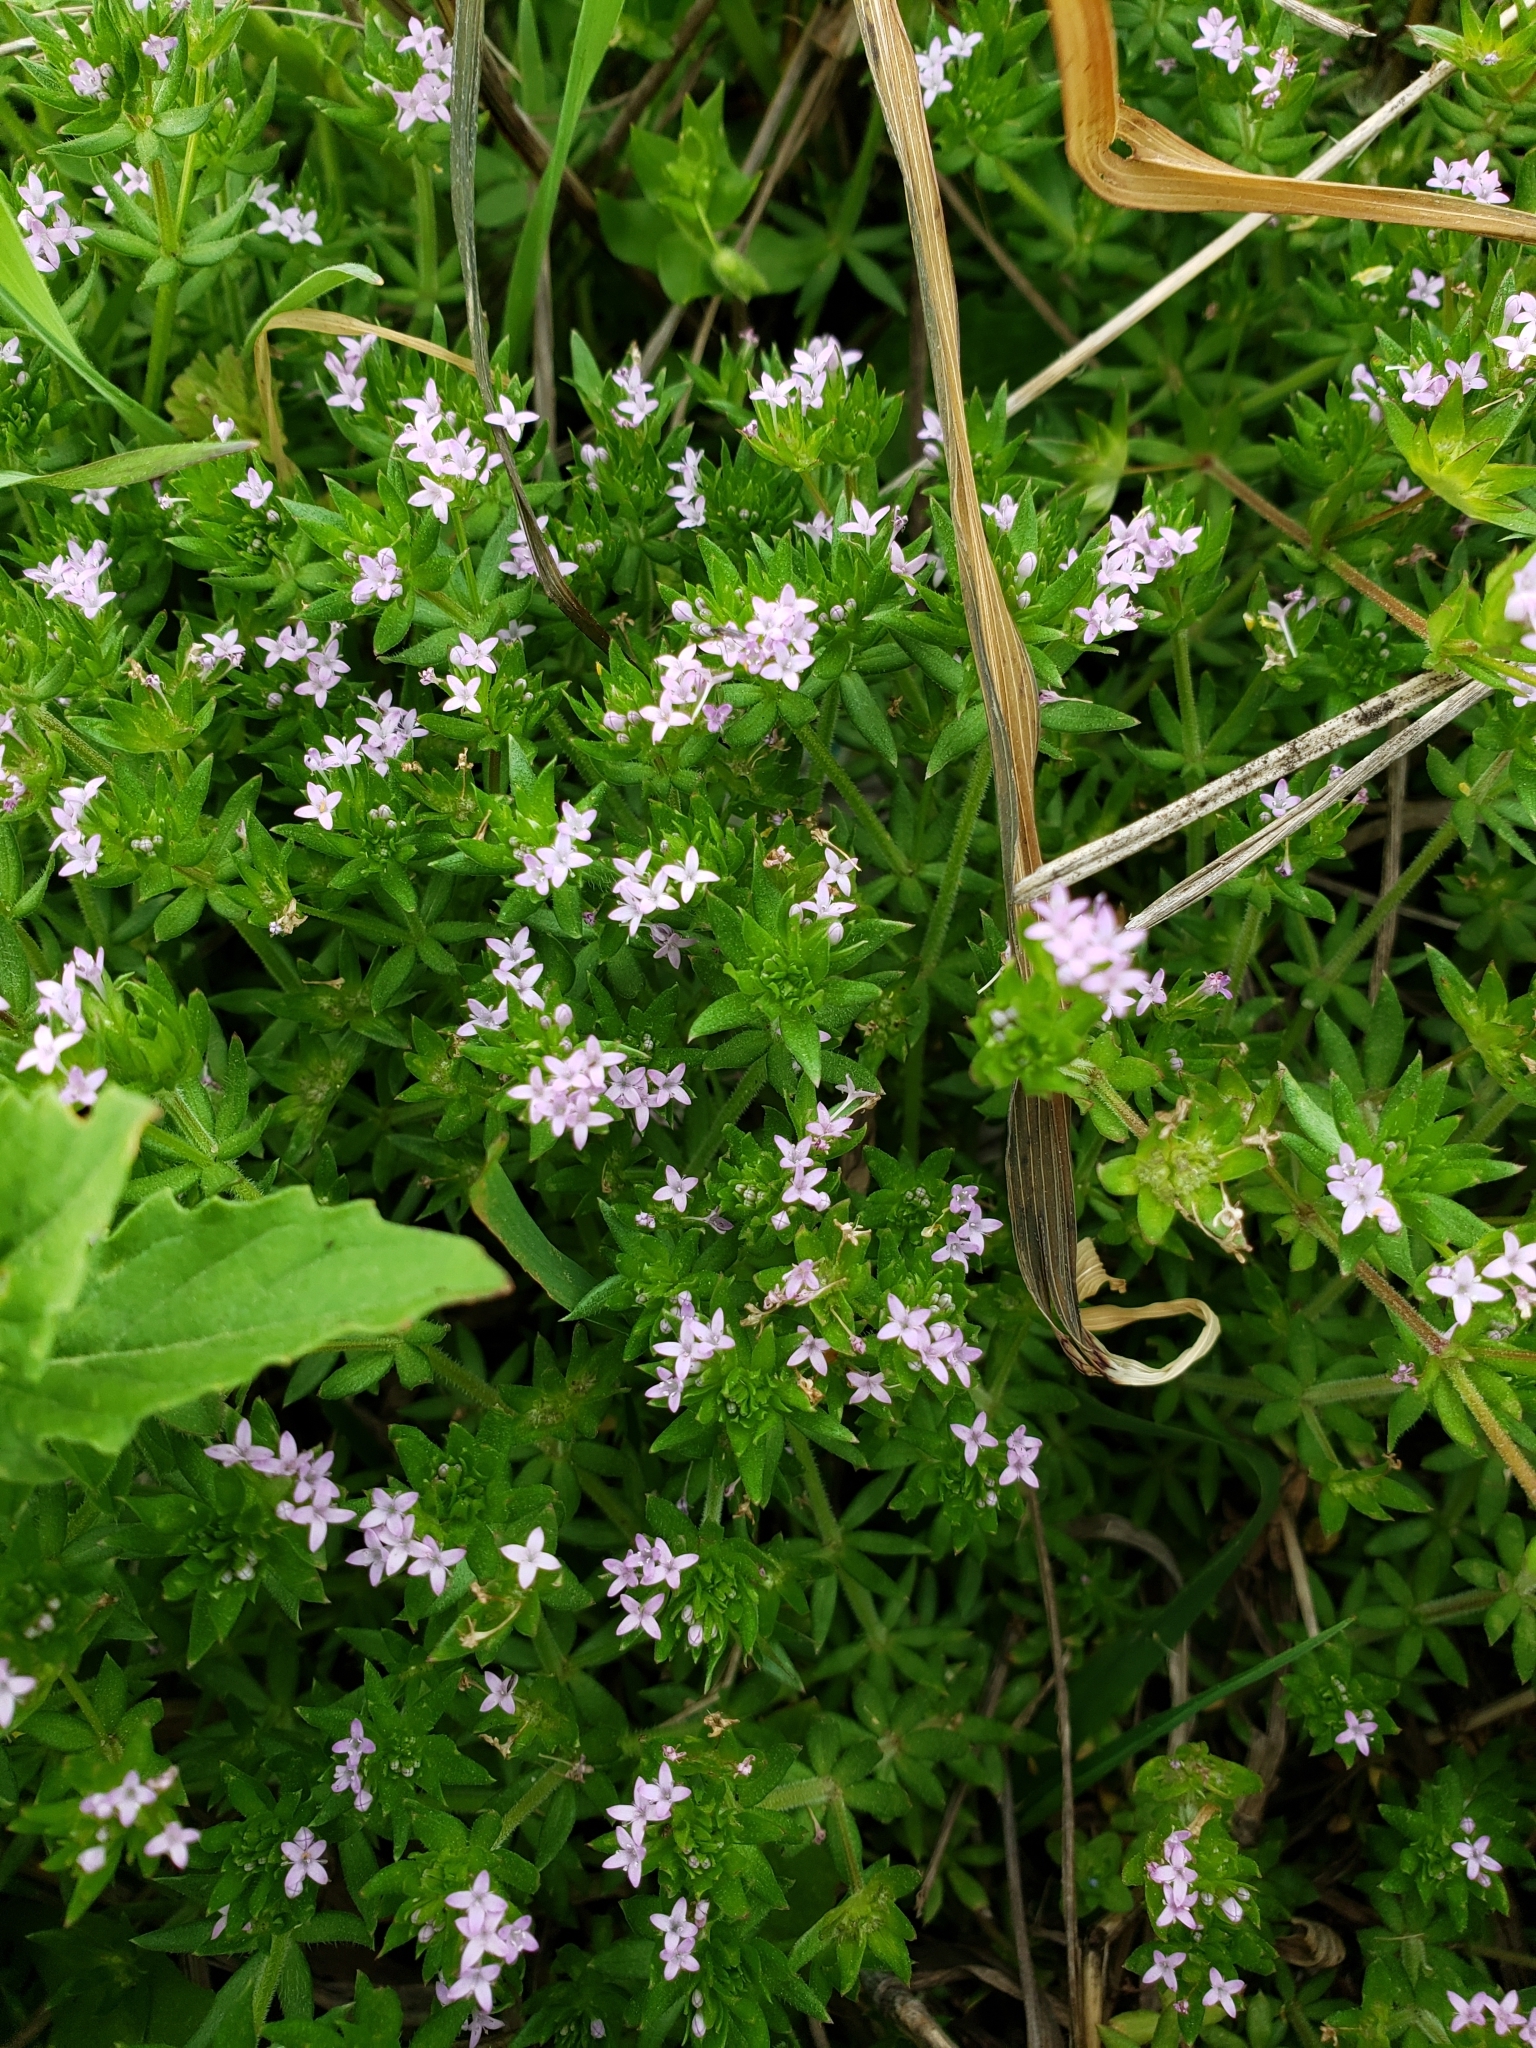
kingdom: Plantae
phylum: Tracheophyta
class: Magnoliopsida
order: Gentianales
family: Rubiaceae
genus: Sherardia
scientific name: Sherardia arvensis
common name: Field madder
